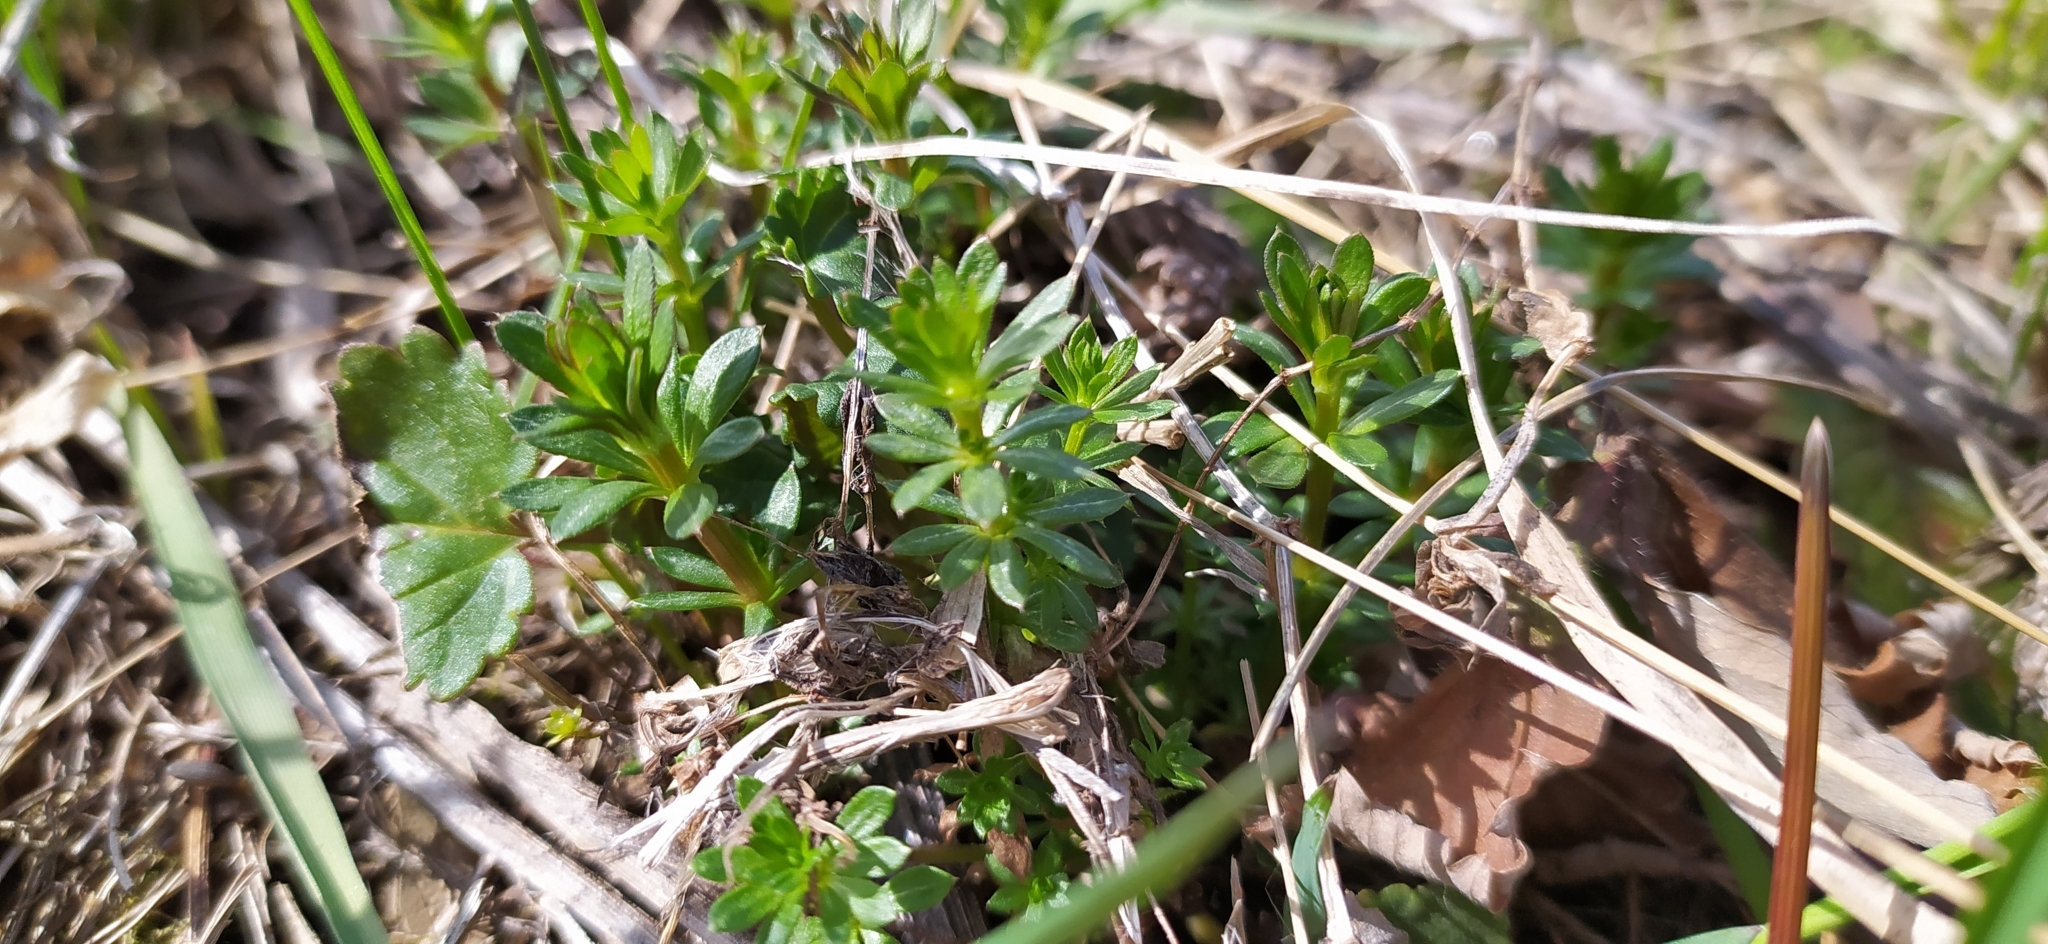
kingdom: Plantae
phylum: Tracheophyta
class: Magnoliopsida
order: Gentianales
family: Rubiaceae
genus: Galium
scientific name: Galium mollugo
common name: Hedge bedstraw
